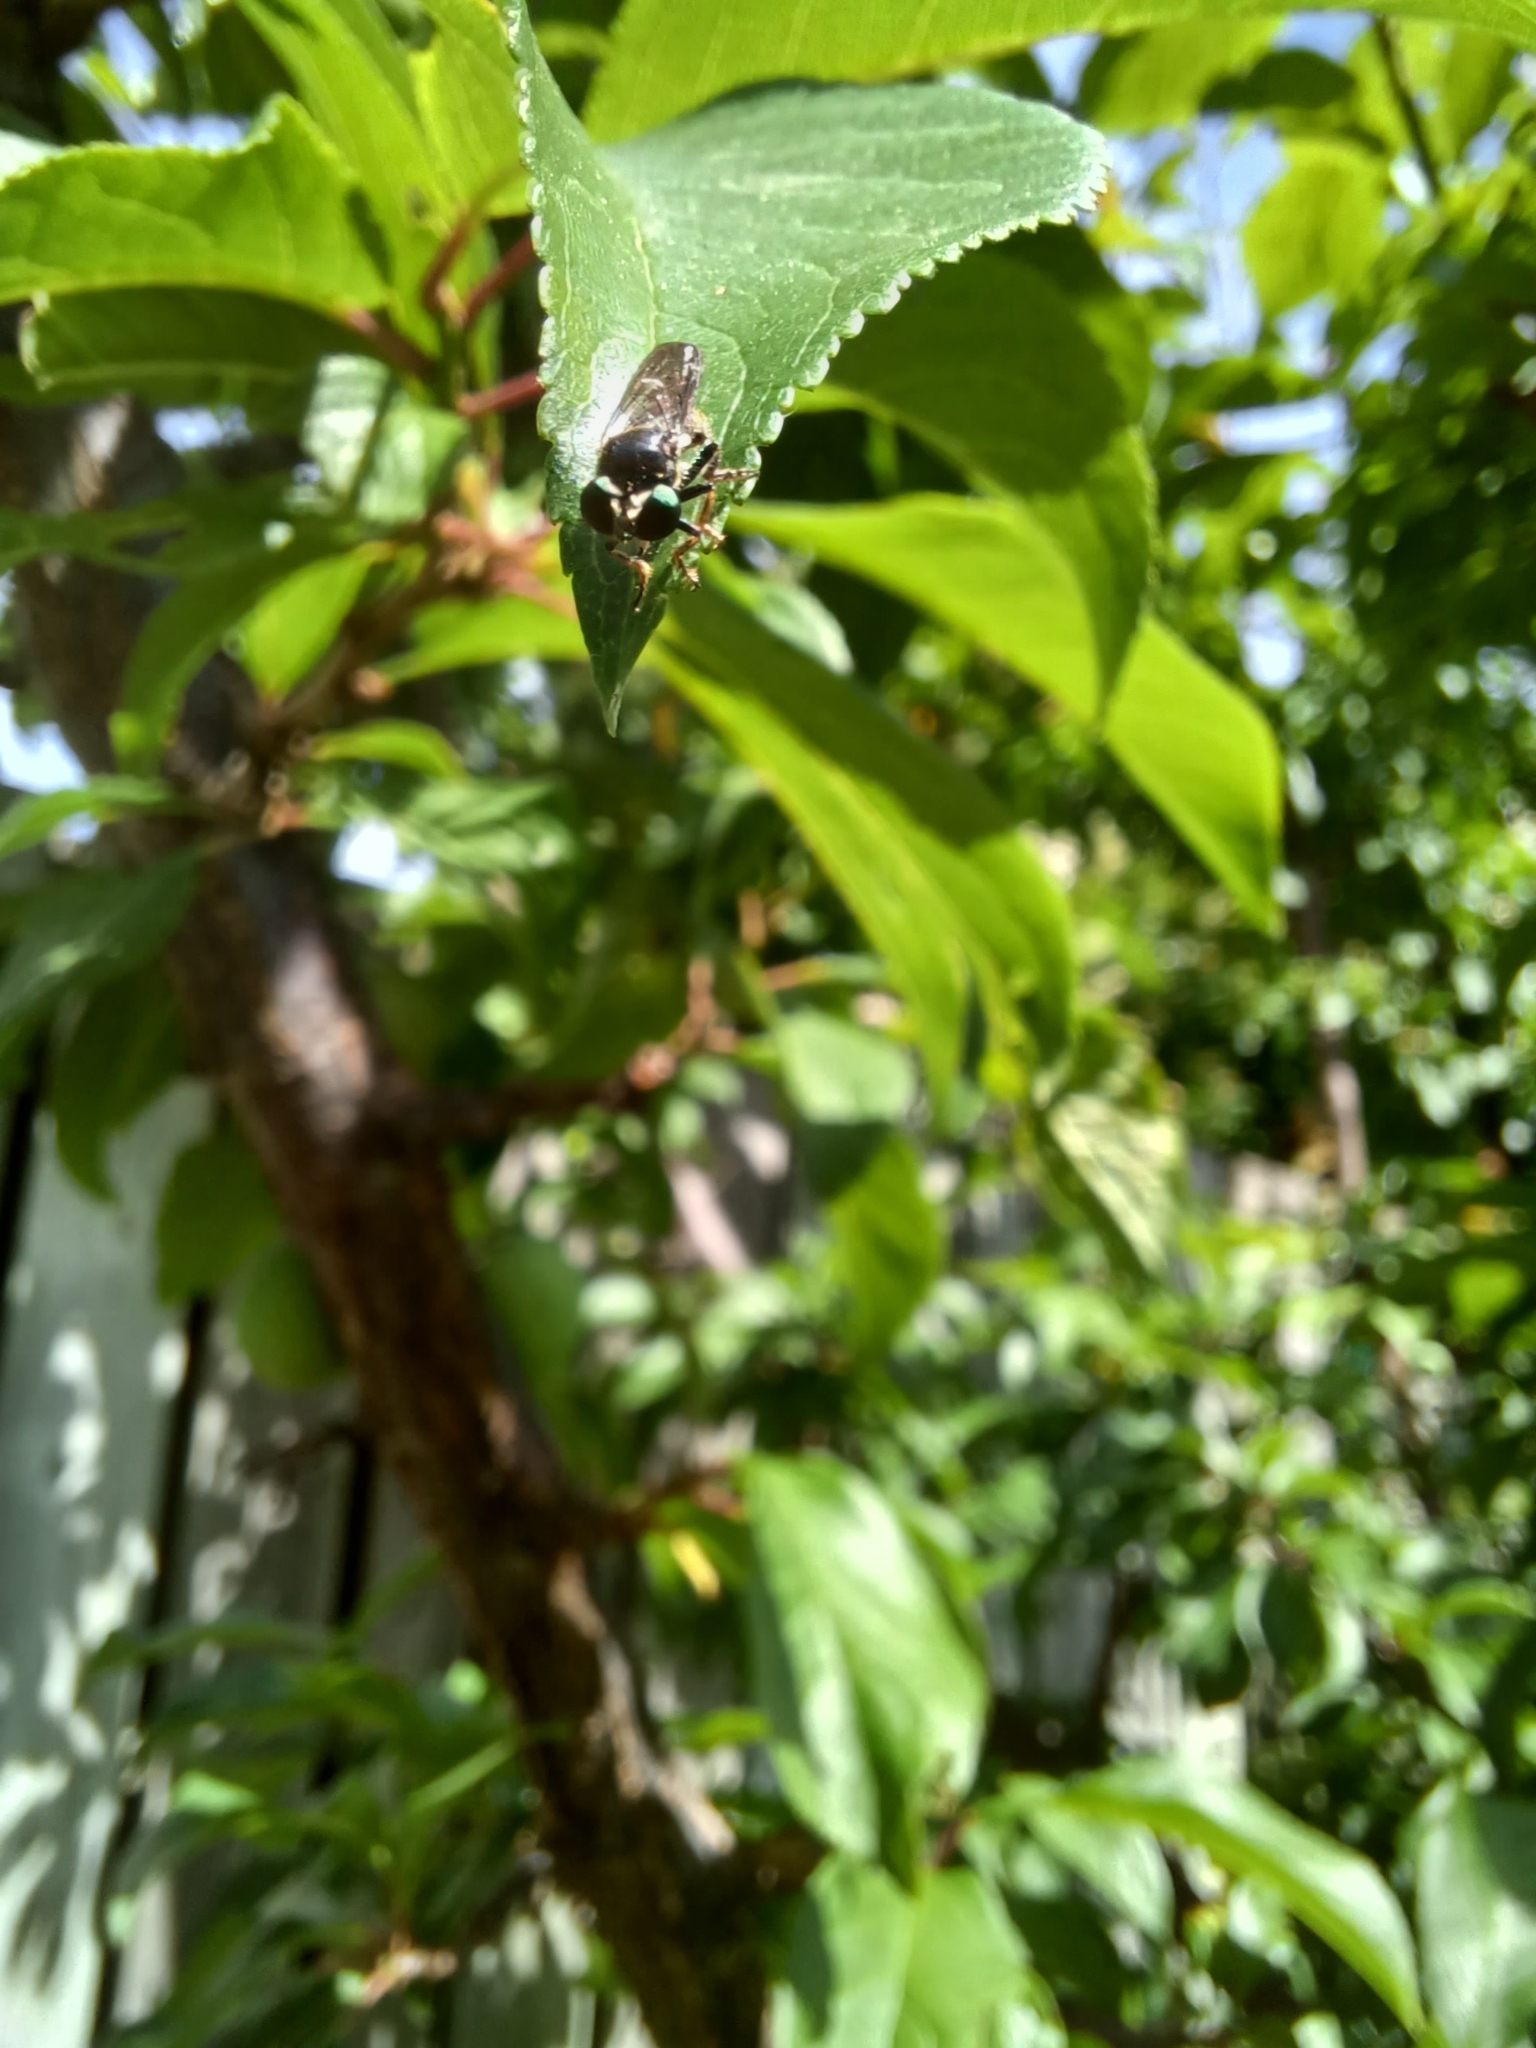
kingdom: Animalia
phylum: Arthropoda
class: Insecta
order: Diptera
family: Asilidae
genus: Cerotainia
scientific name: Cerotainia macrocera
